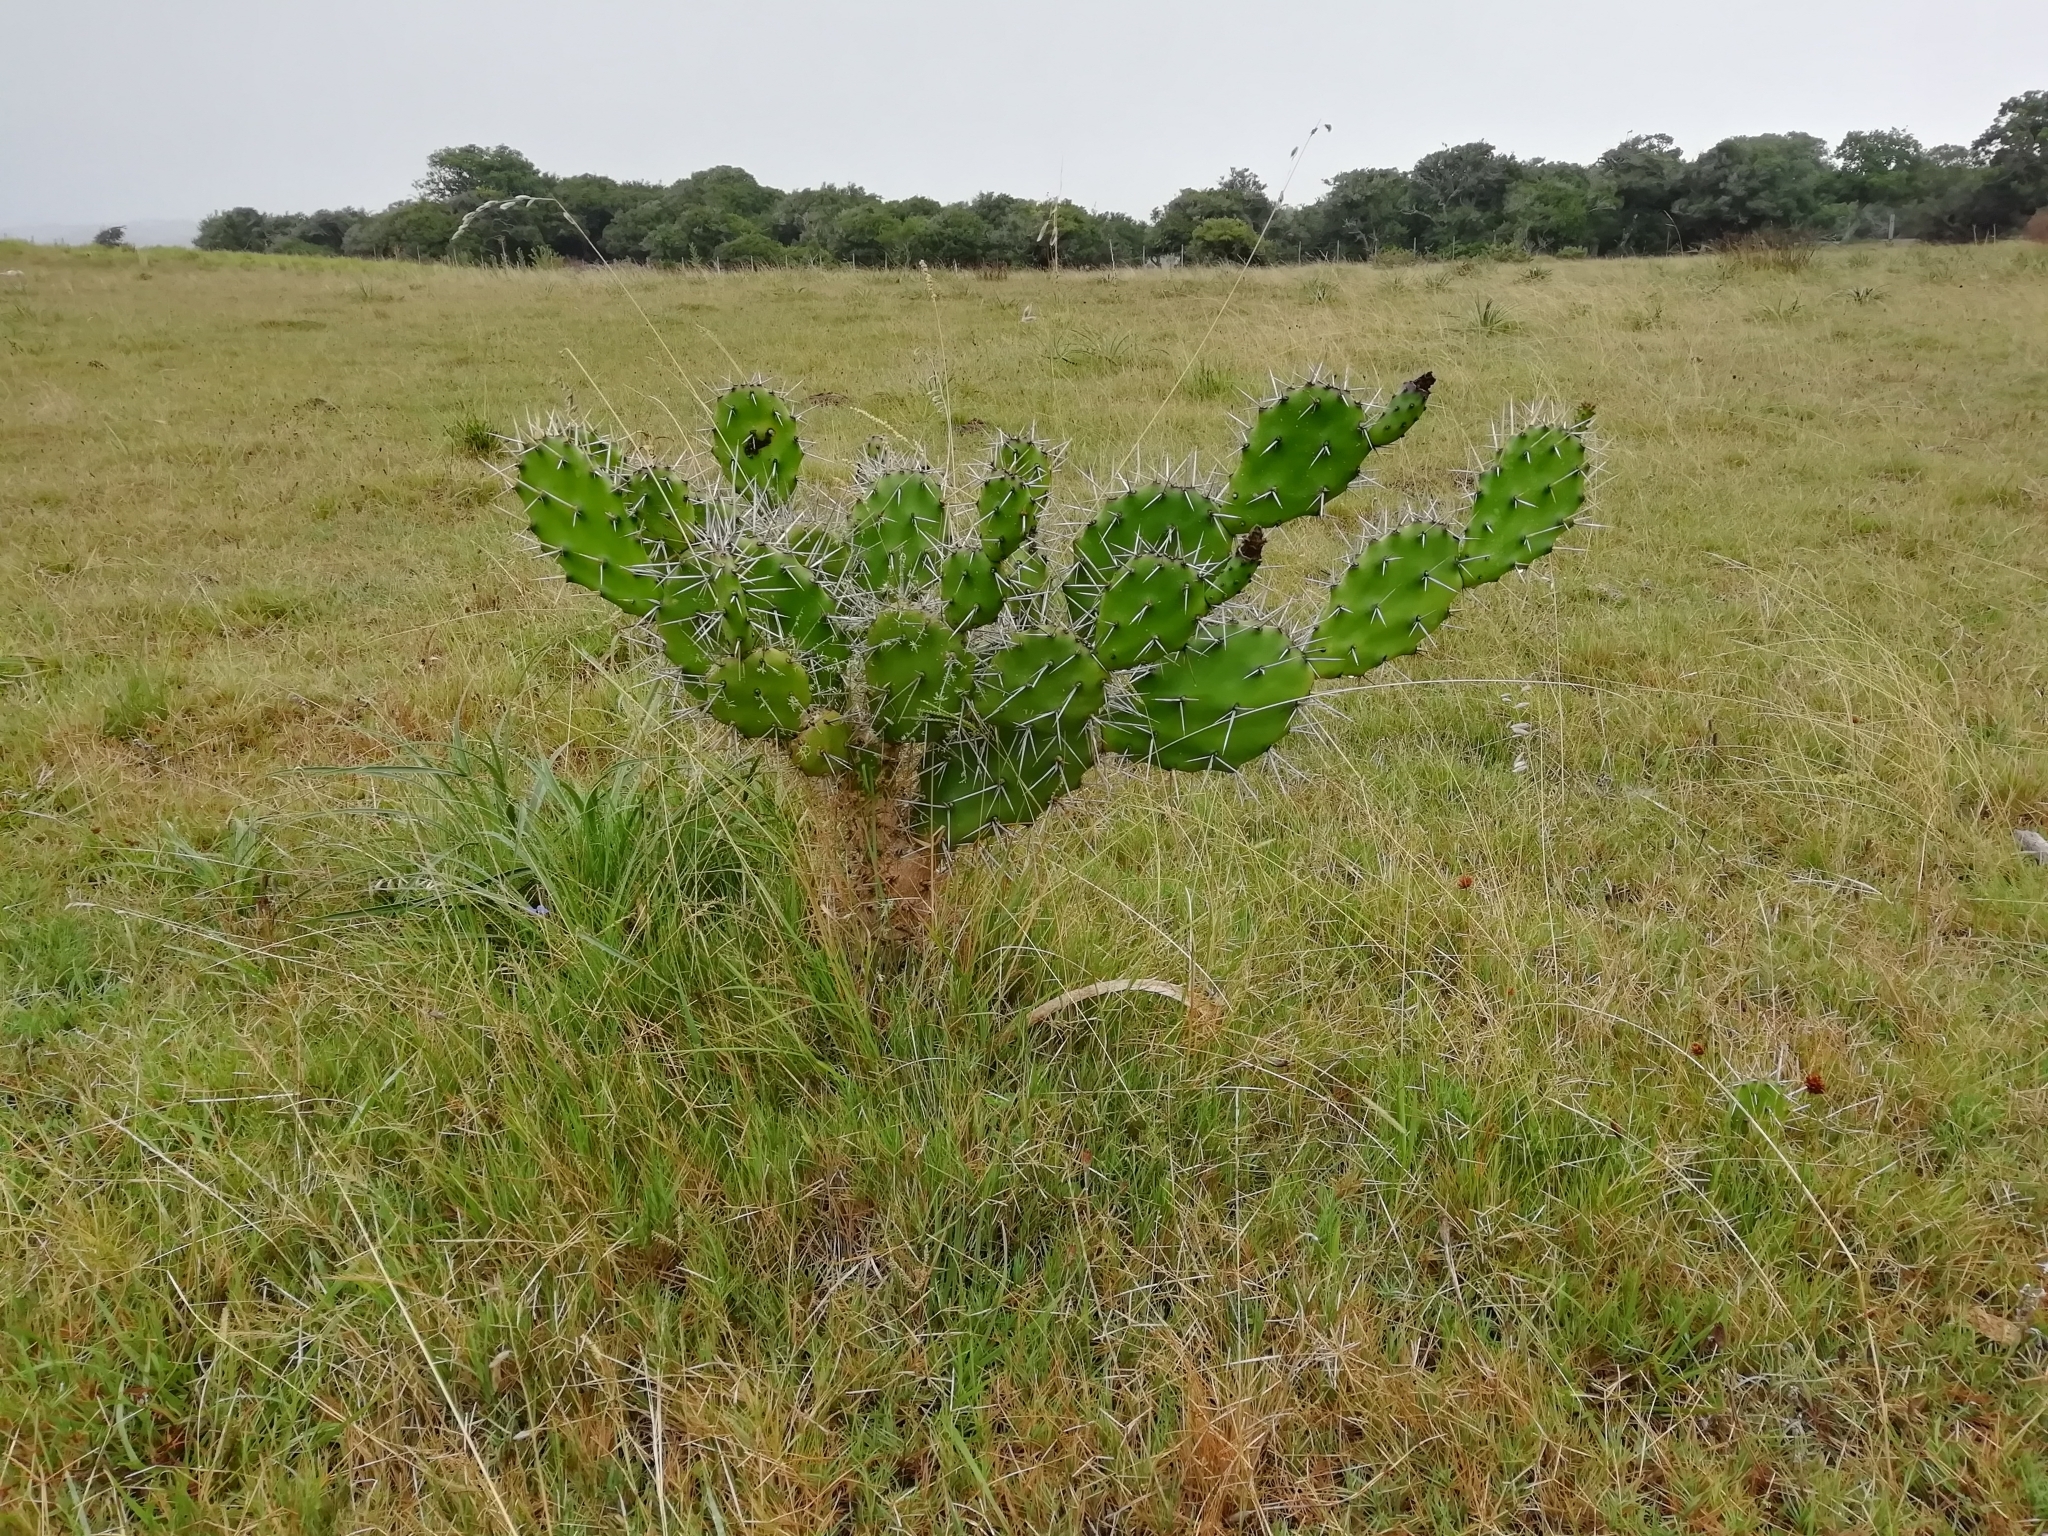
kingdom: Plantae
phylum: Tracheophyta
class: Magnoliopsida
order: Caryophyllales
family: Cactaceae
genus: Opuntia
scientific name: Opuntia arechavaletae
